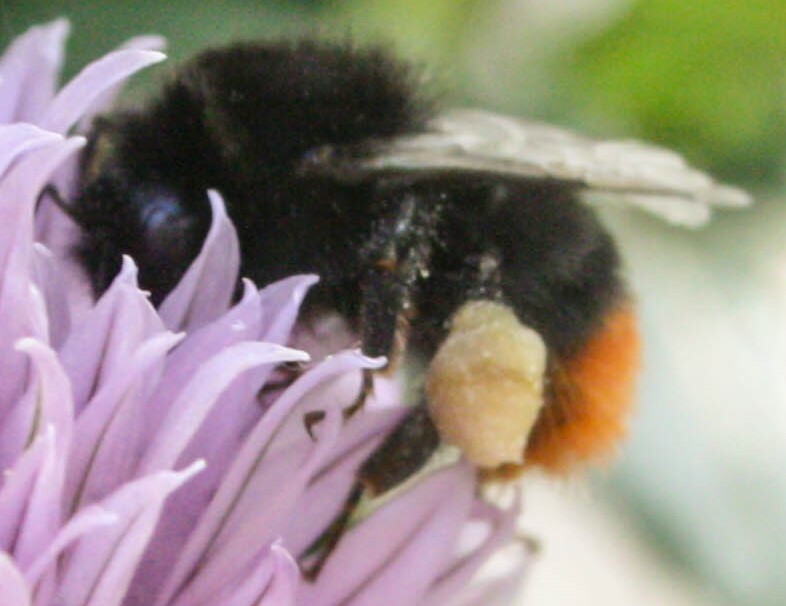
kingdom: Animalia
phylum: Arthropoda
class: Insecta
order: Hymenoptera
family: Apidae
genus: Bombus
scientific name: Bombus lapidarius
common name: Large red-tailed humble-bee
